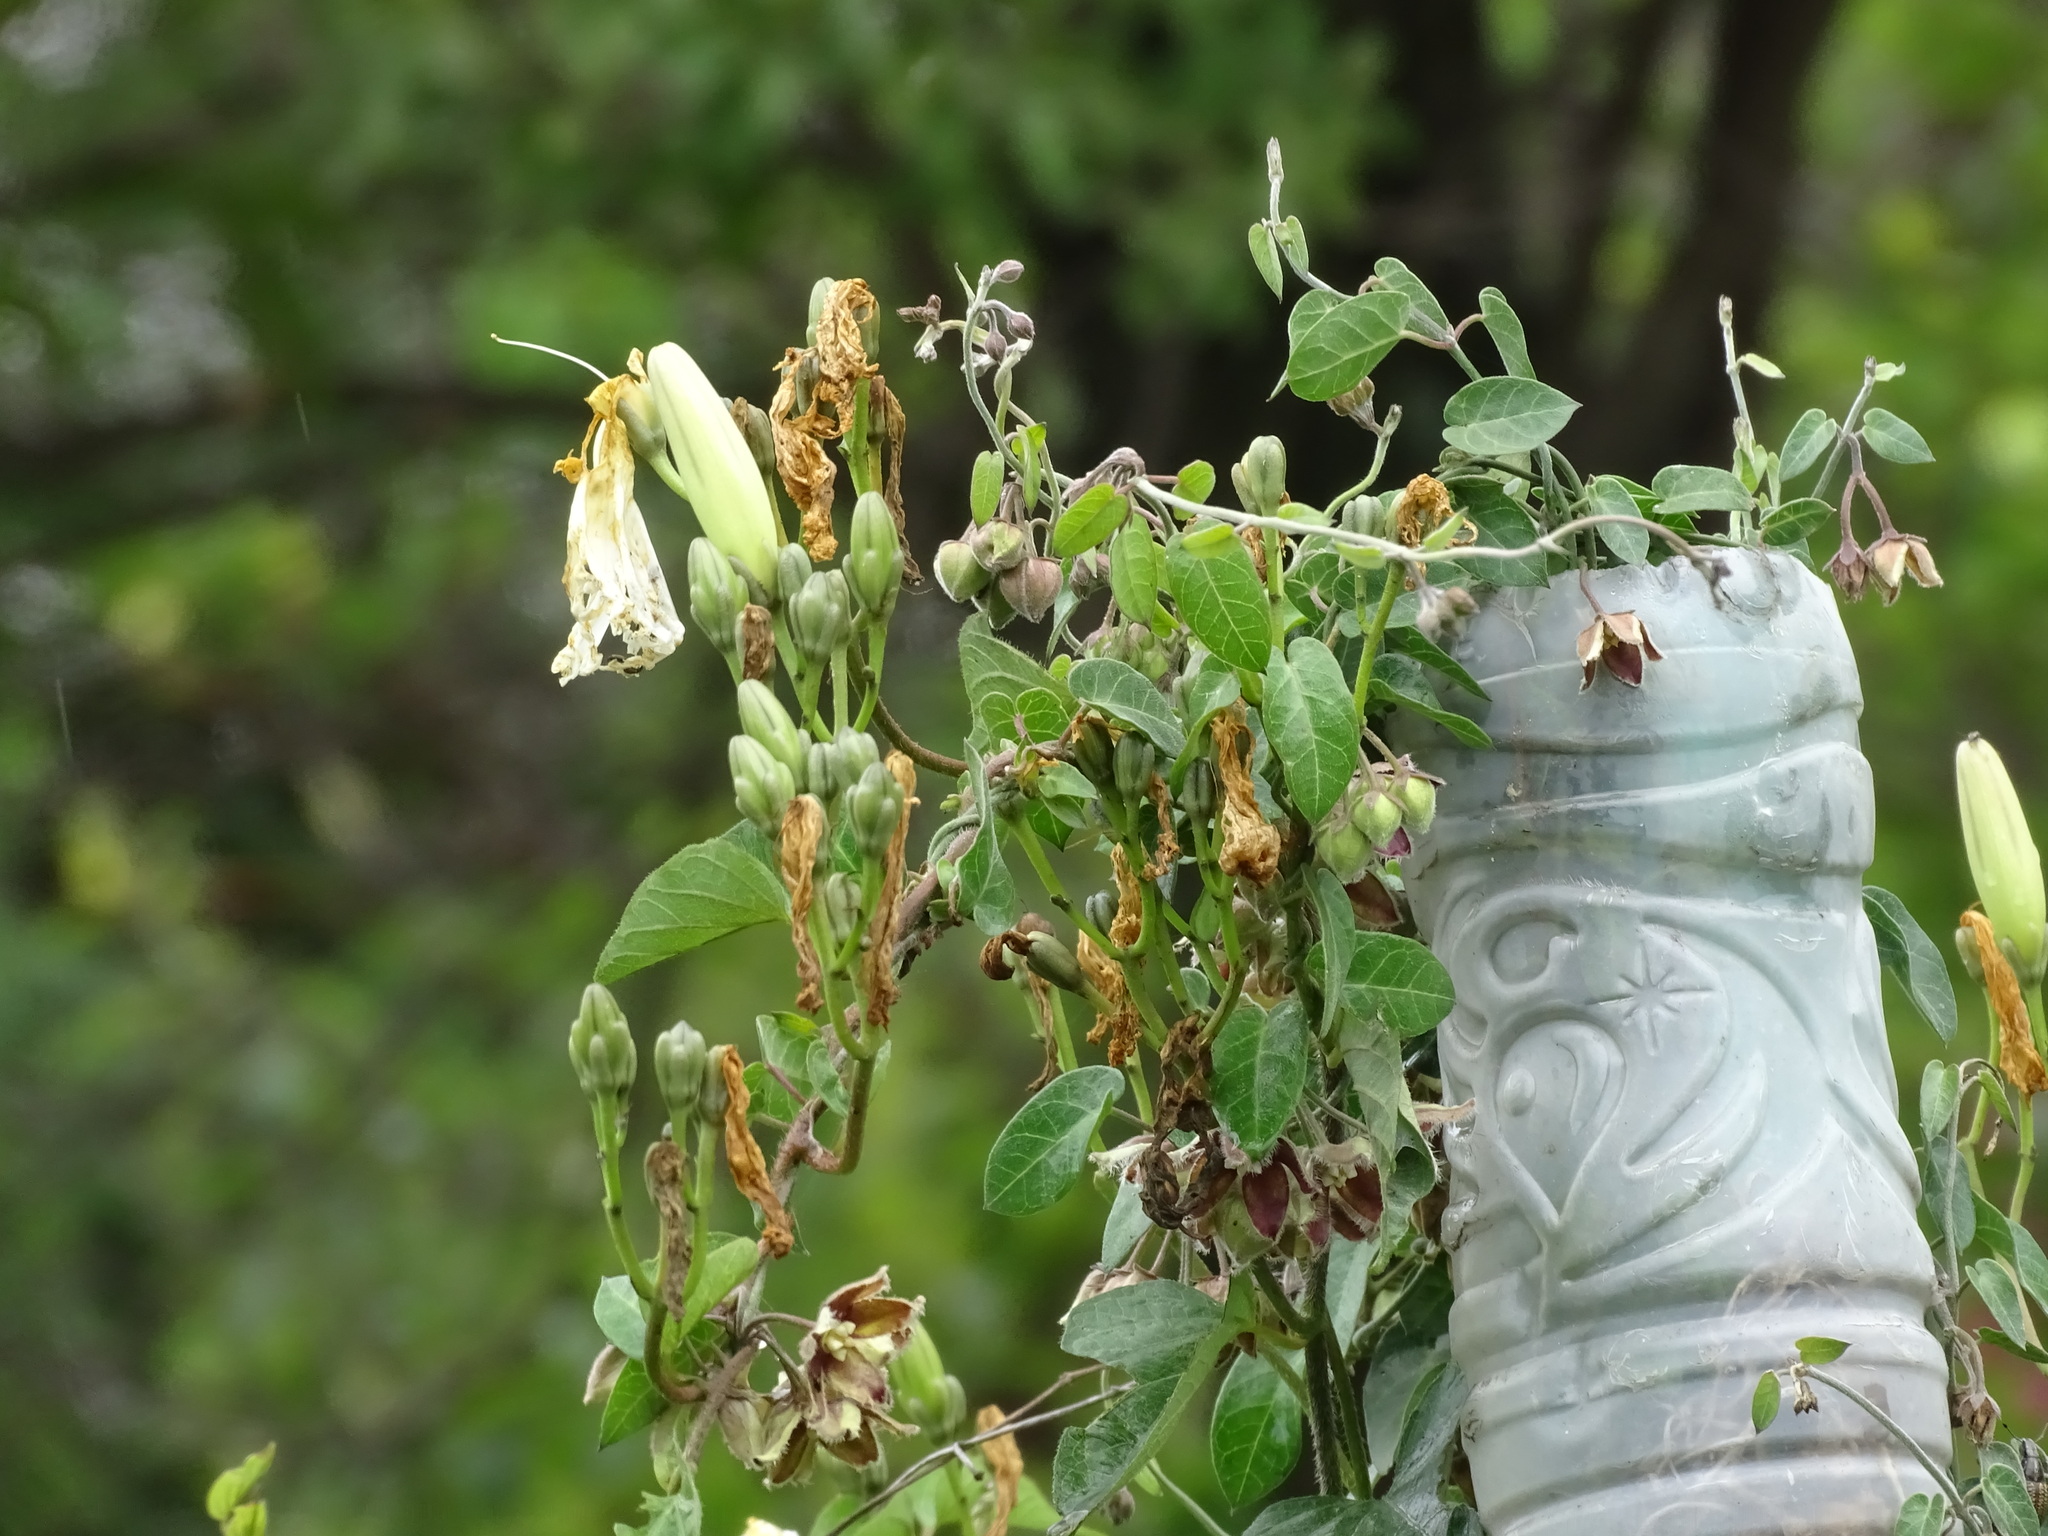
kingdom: Plantae
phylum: Tracheophyta
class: Magnoliopsida
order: Solanales
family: Convolvulaceae
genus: Ipomoea
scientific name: Ipomoea proxima
